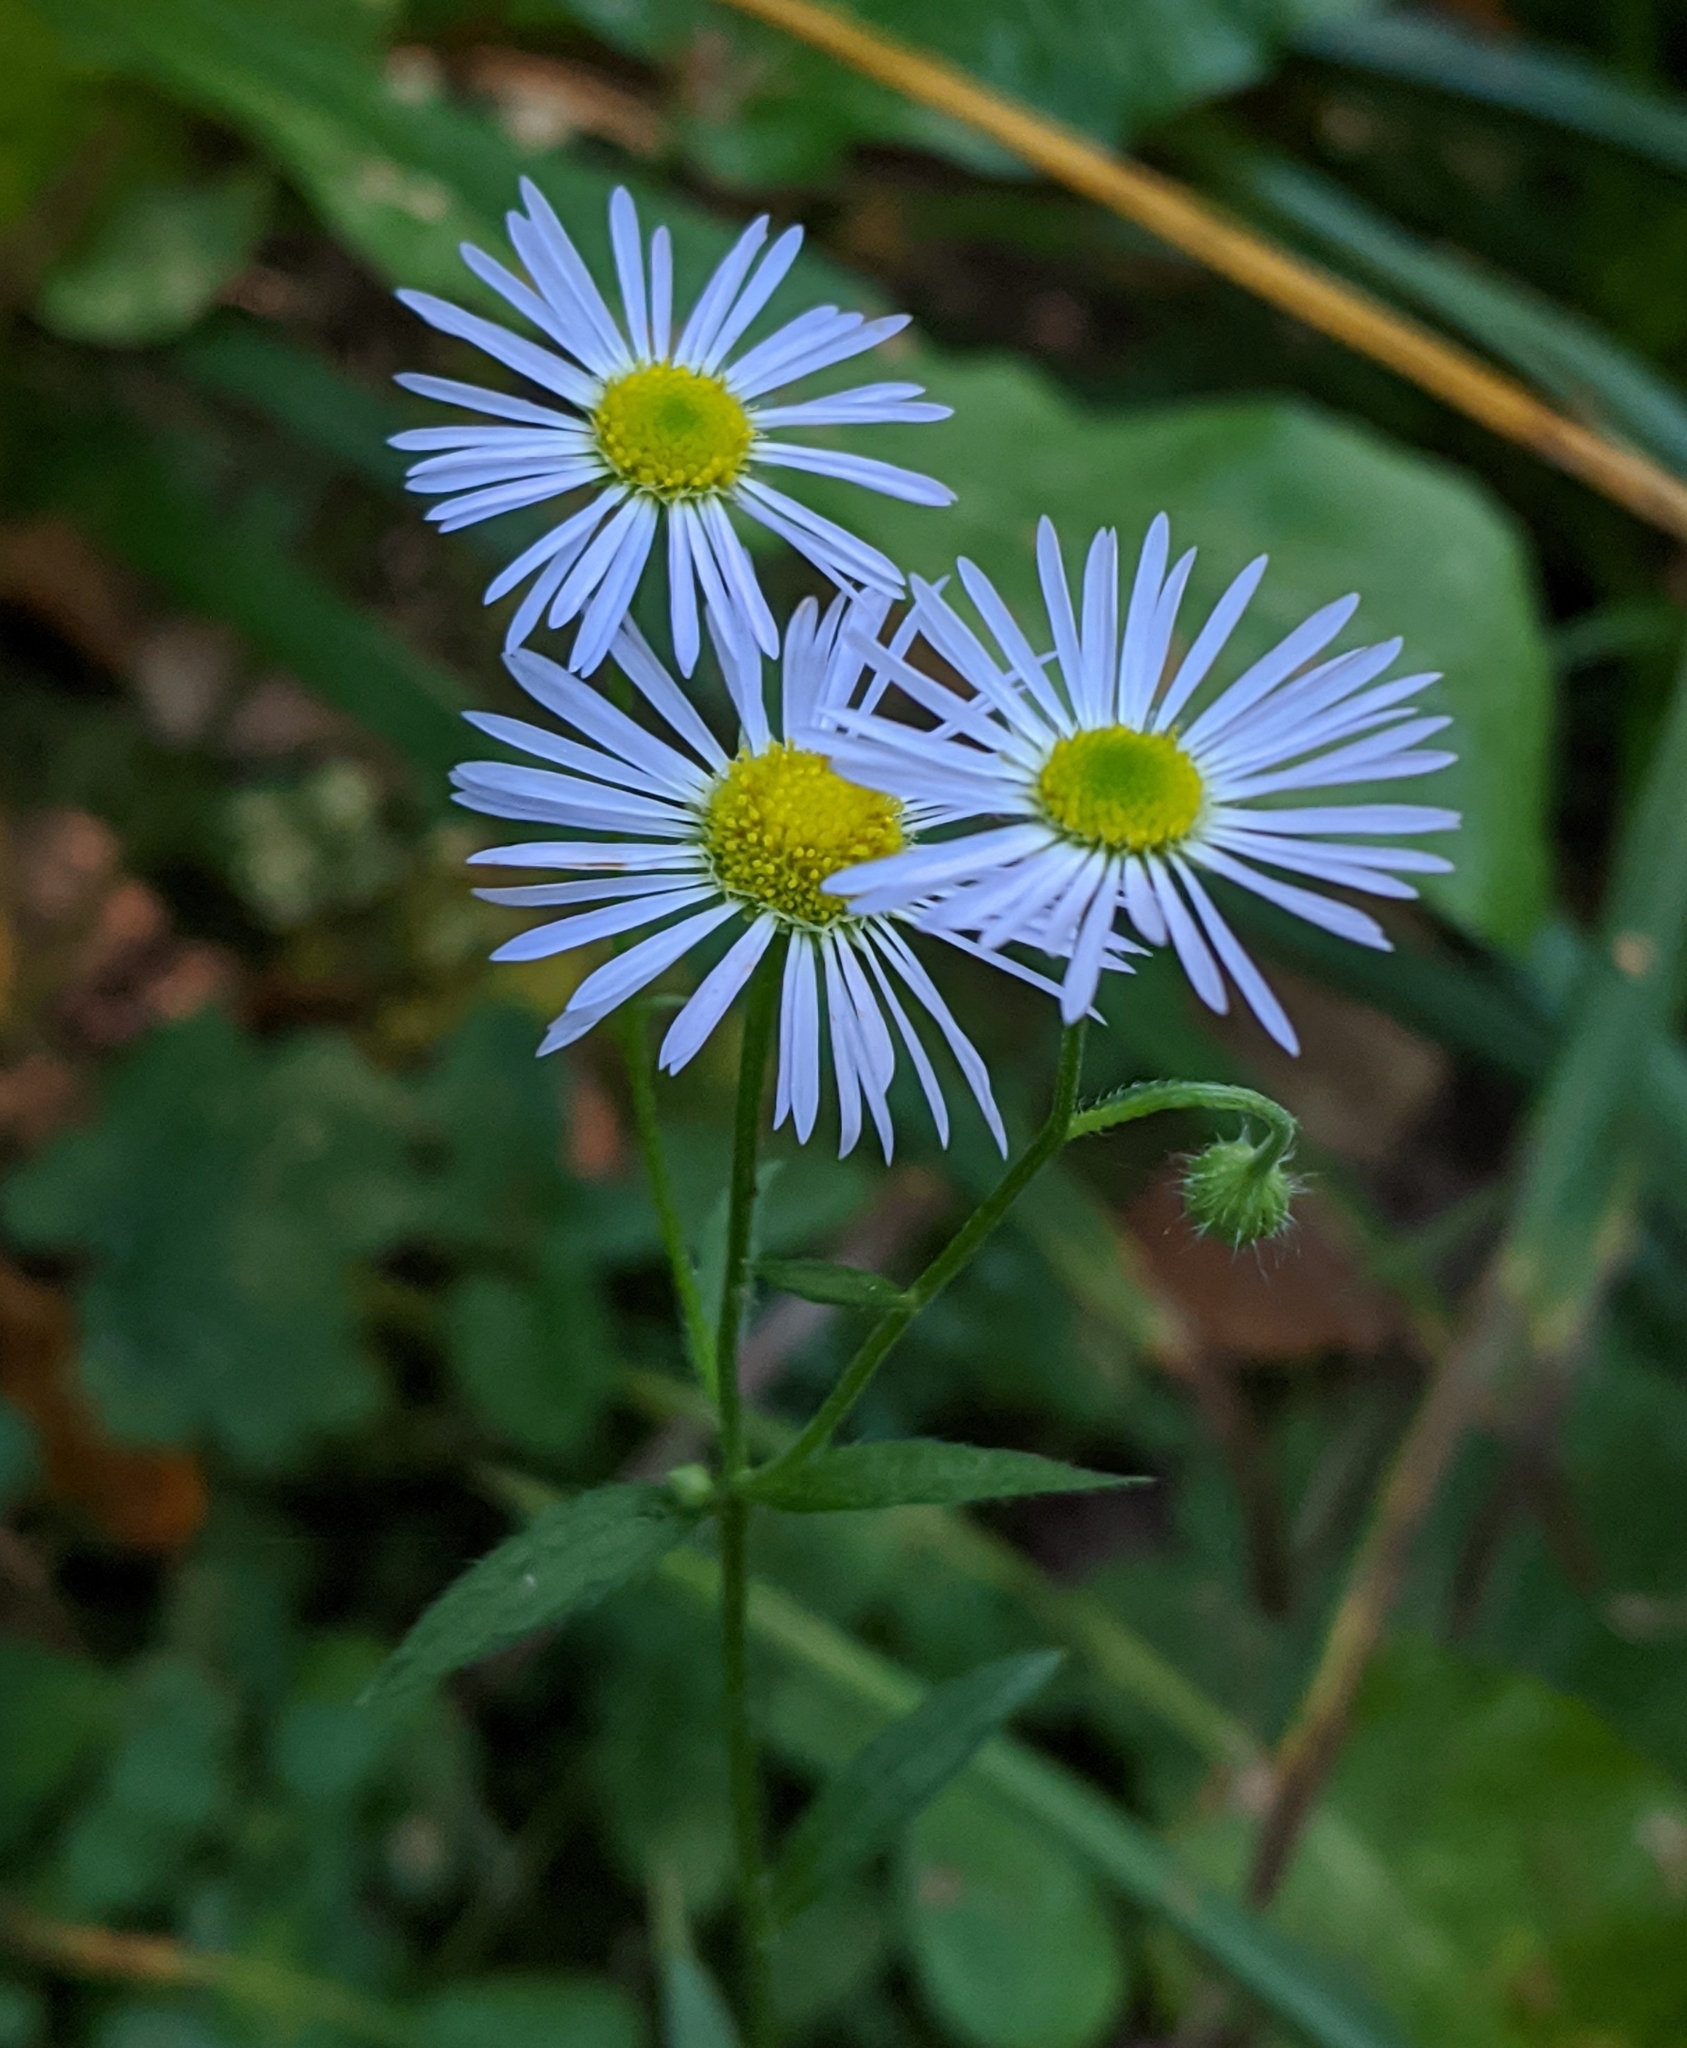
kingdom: Plantae
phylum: Tracheophyta
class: Magnoliopsida
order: Asterales
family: Asteraceae
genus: Erigeron
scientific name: Erigeron strigosus
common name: Common eastern fleabane
